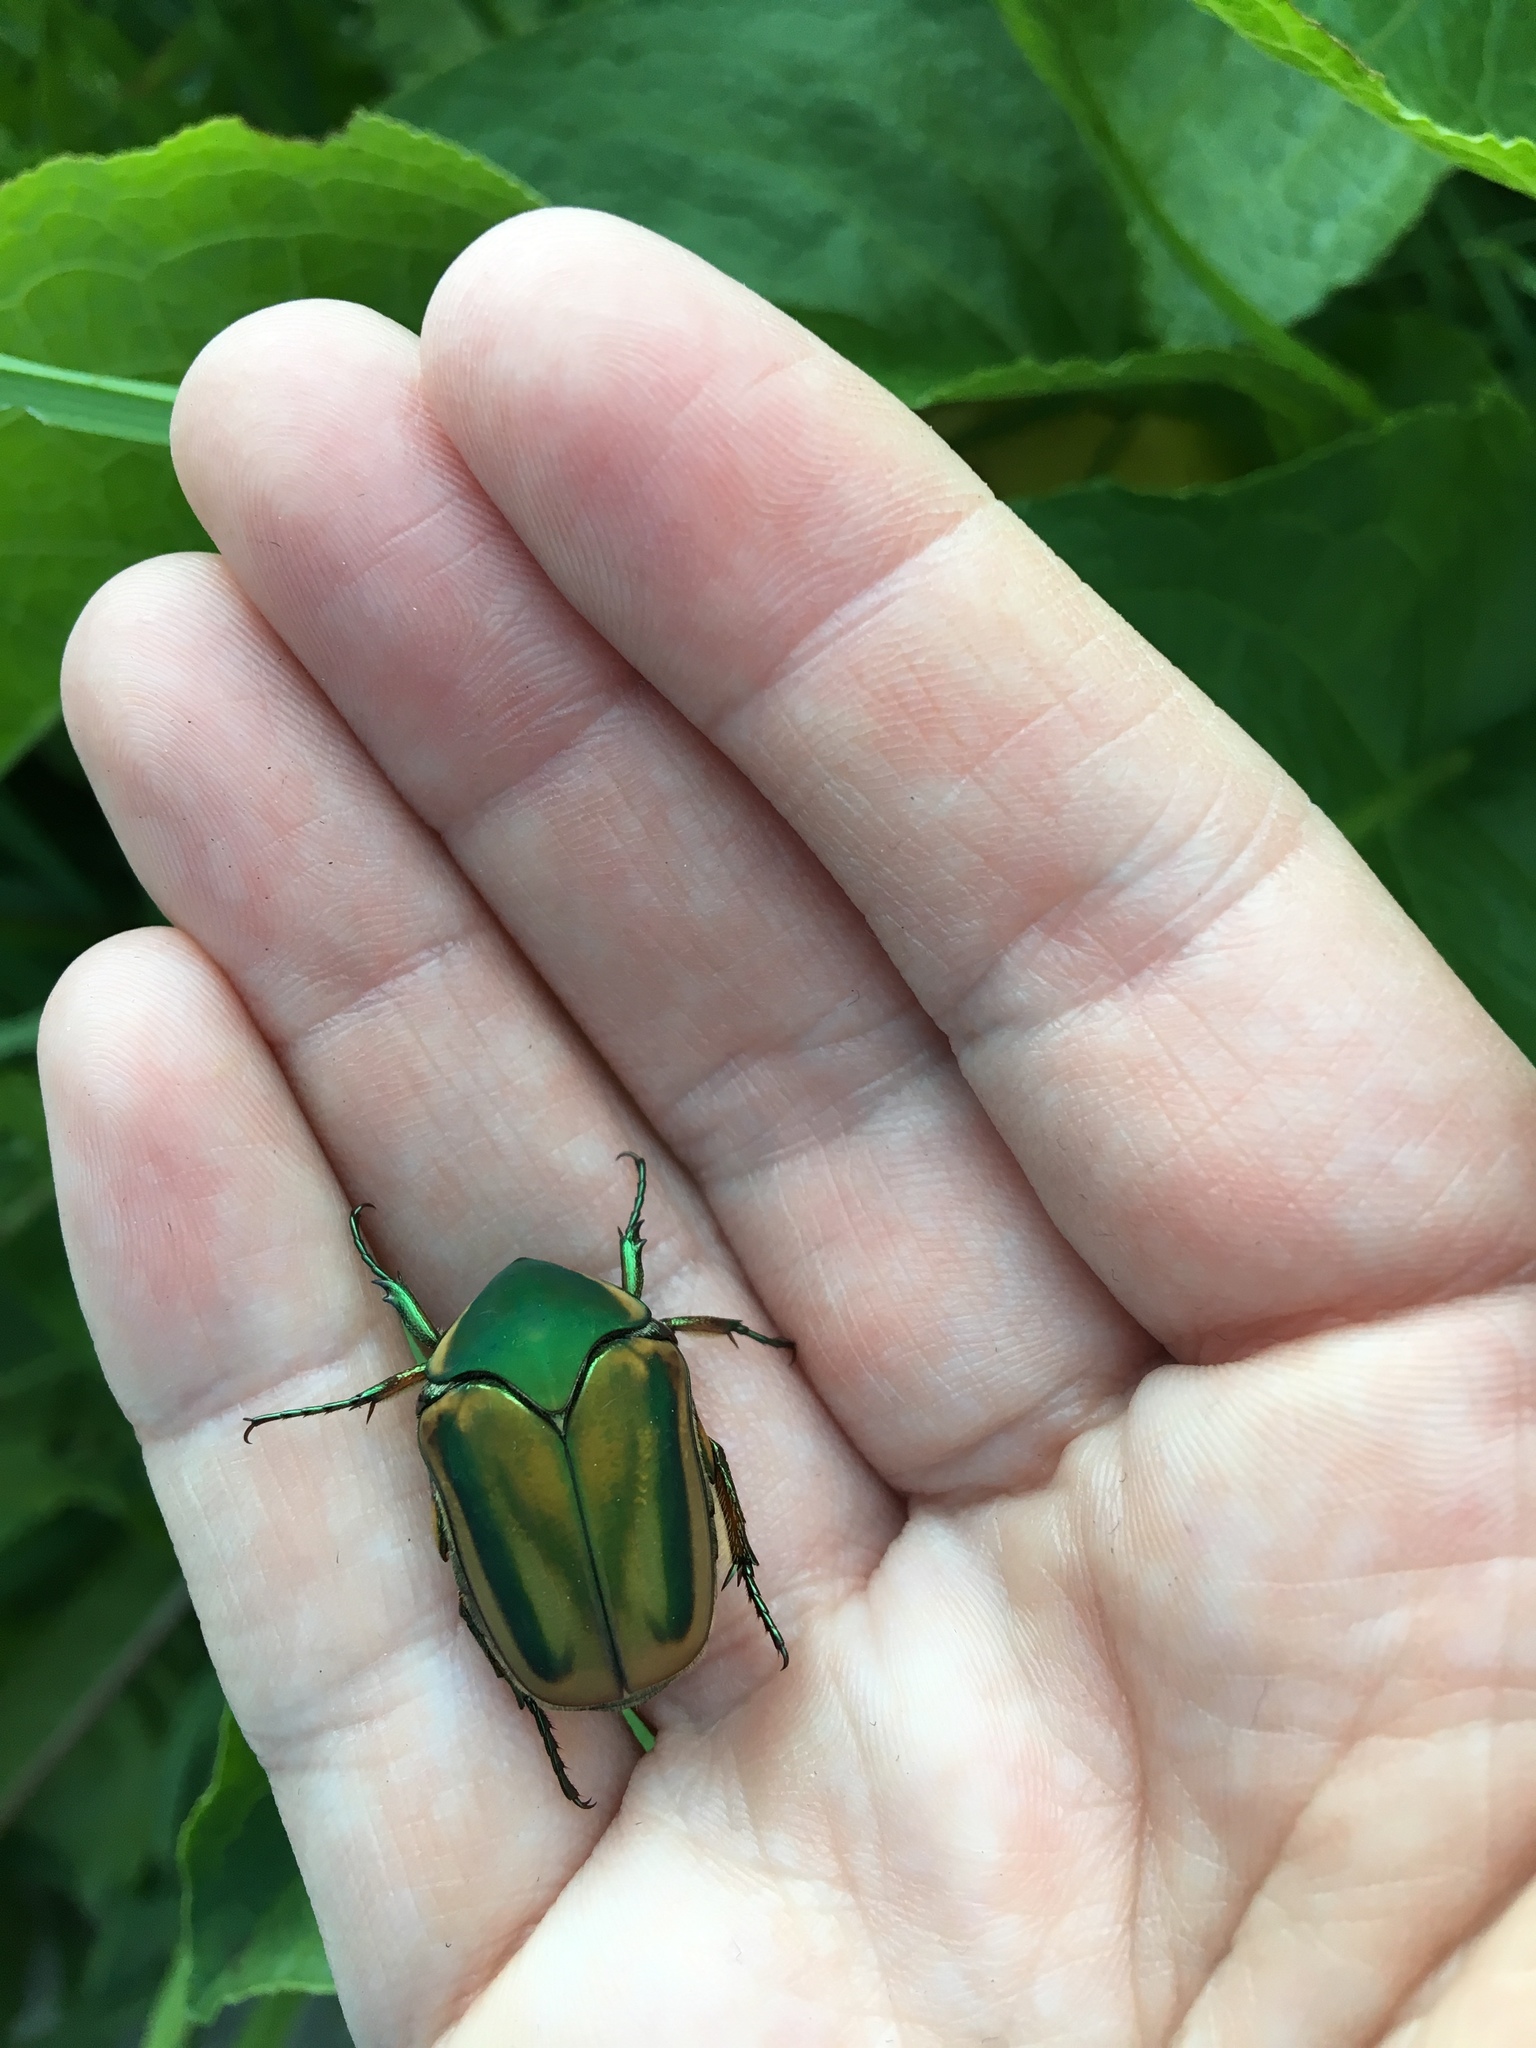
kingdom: Animalia
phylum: Arthropoda
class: Insecta
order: Coleoptera
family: Scarabaeidae
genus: Cotinis
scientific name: Cotinis nitida
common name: Common green june beetle
